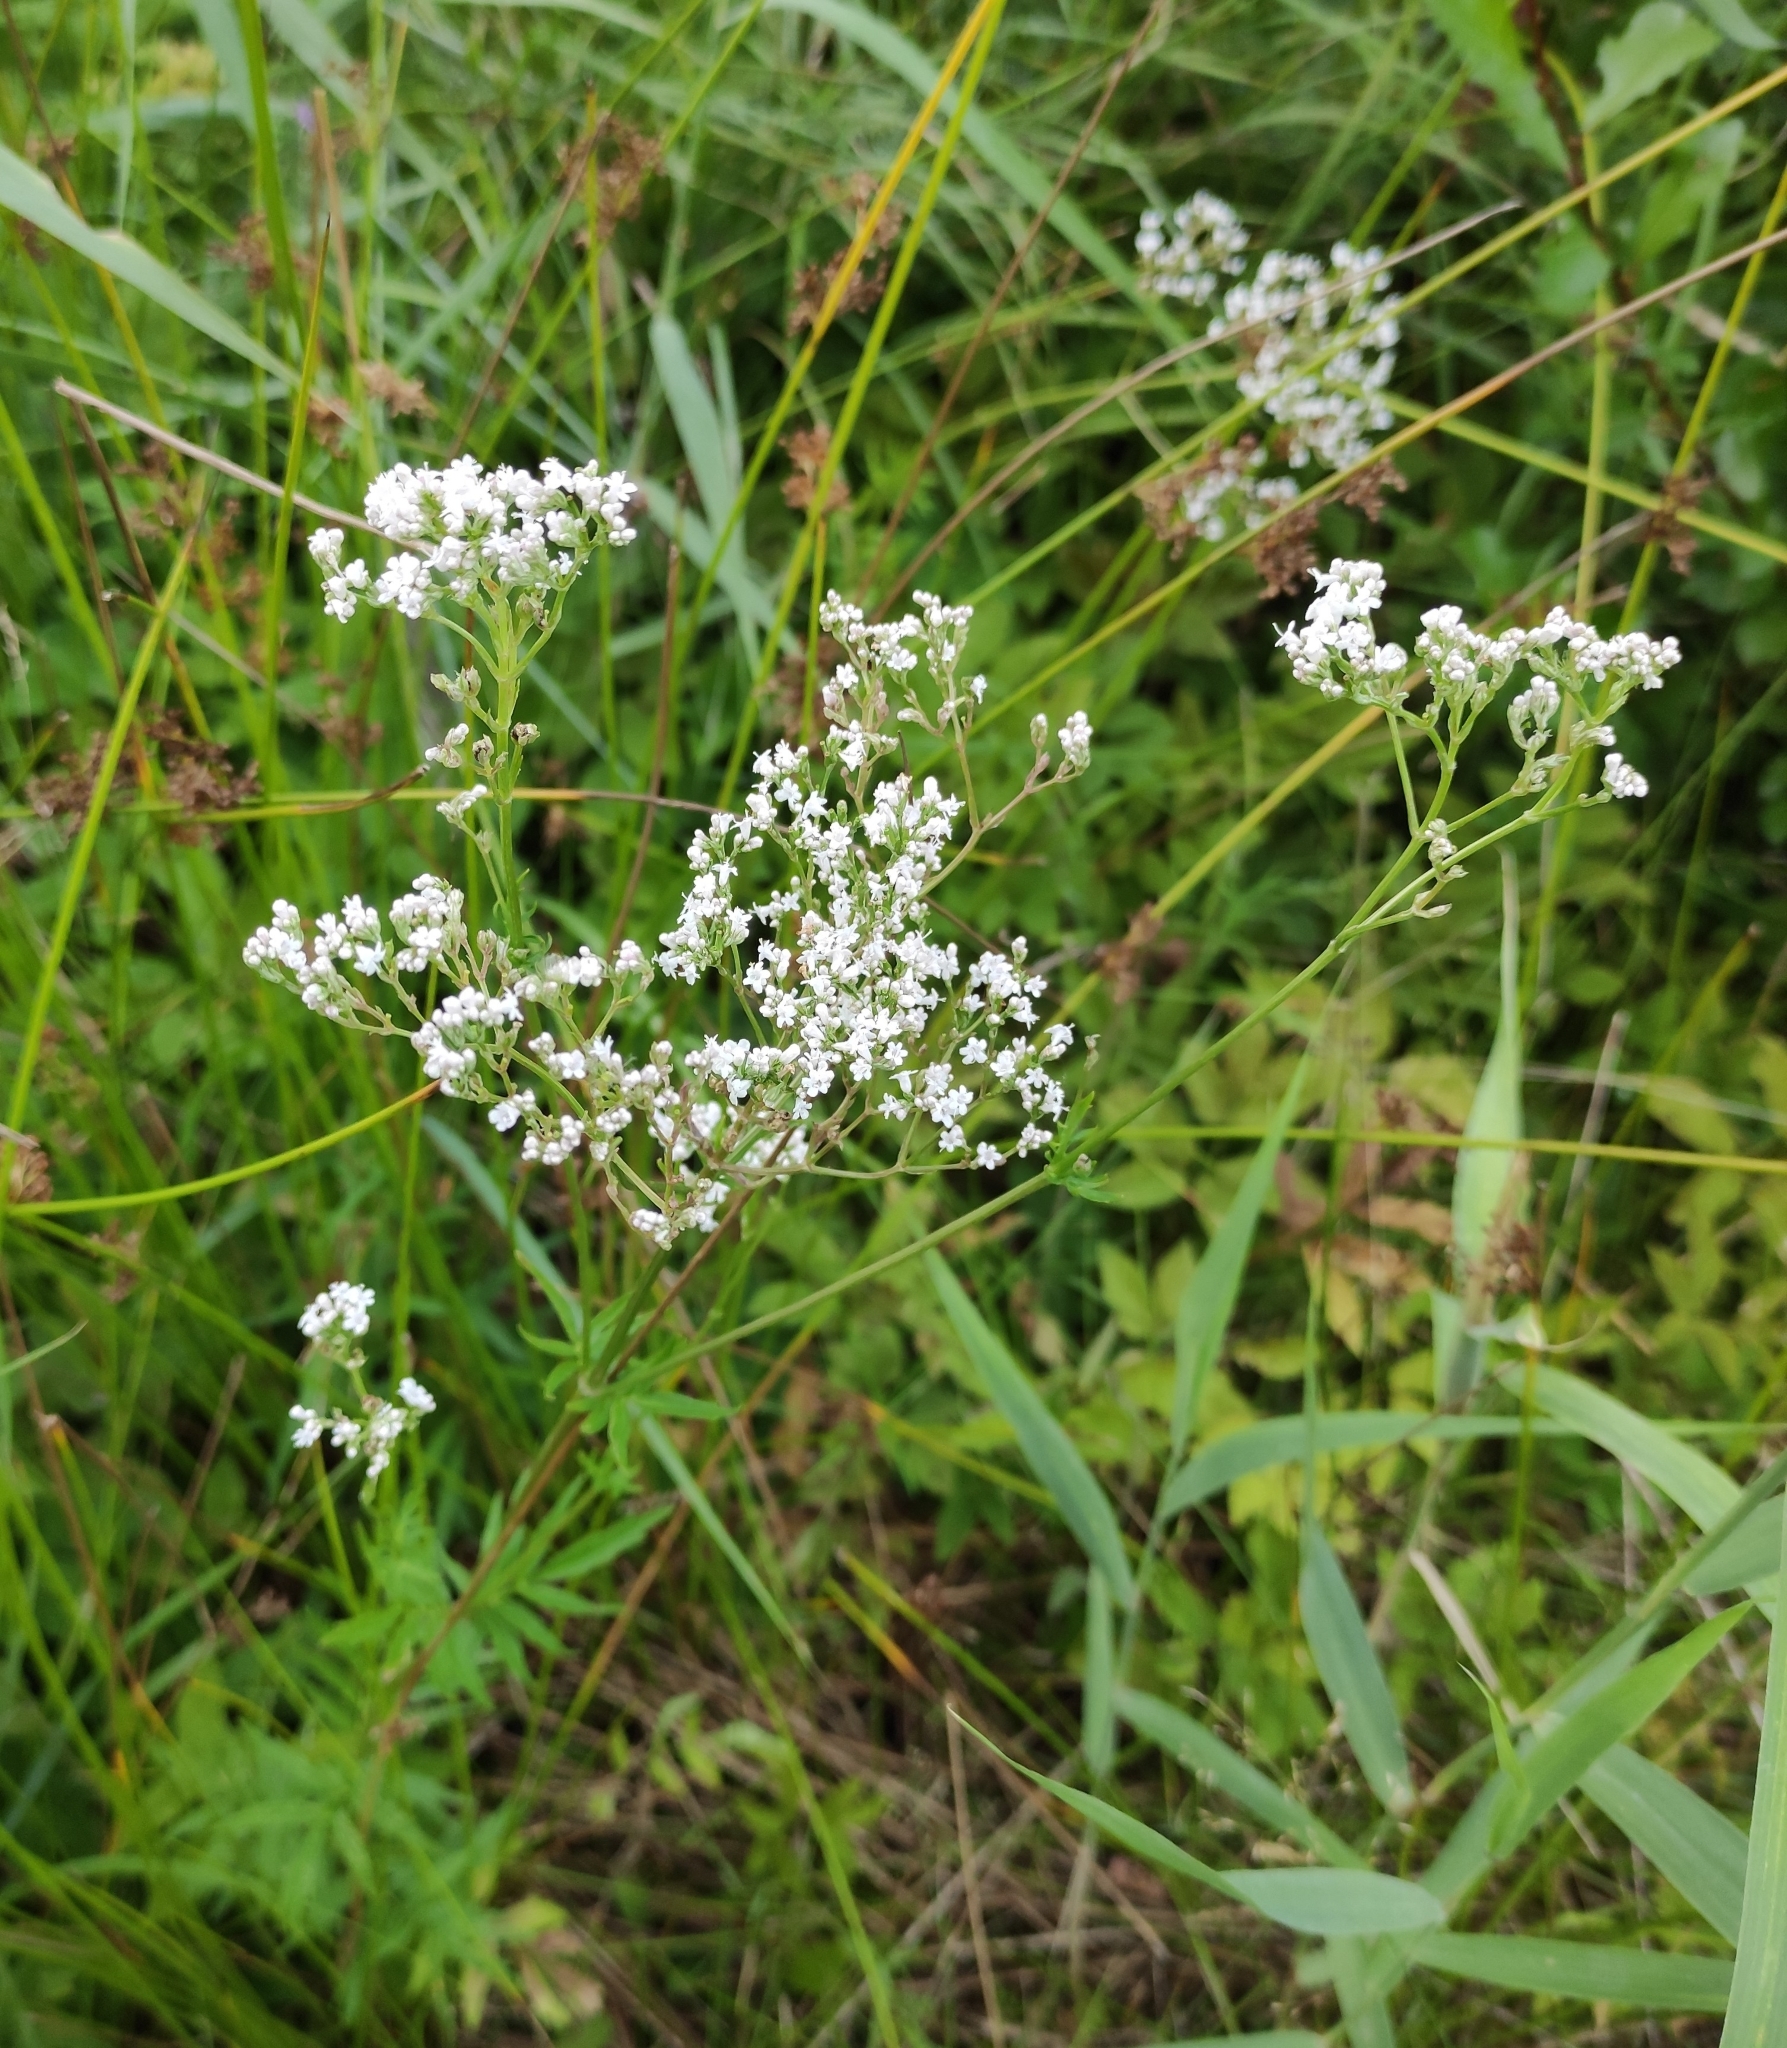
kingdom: Plantae
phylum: Tracheophyta
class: Magnoliopsida
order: Dipsacales
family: Caprifoliaceae
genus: Valeriana
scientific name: Valeriana officinalis
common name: Common valerian
